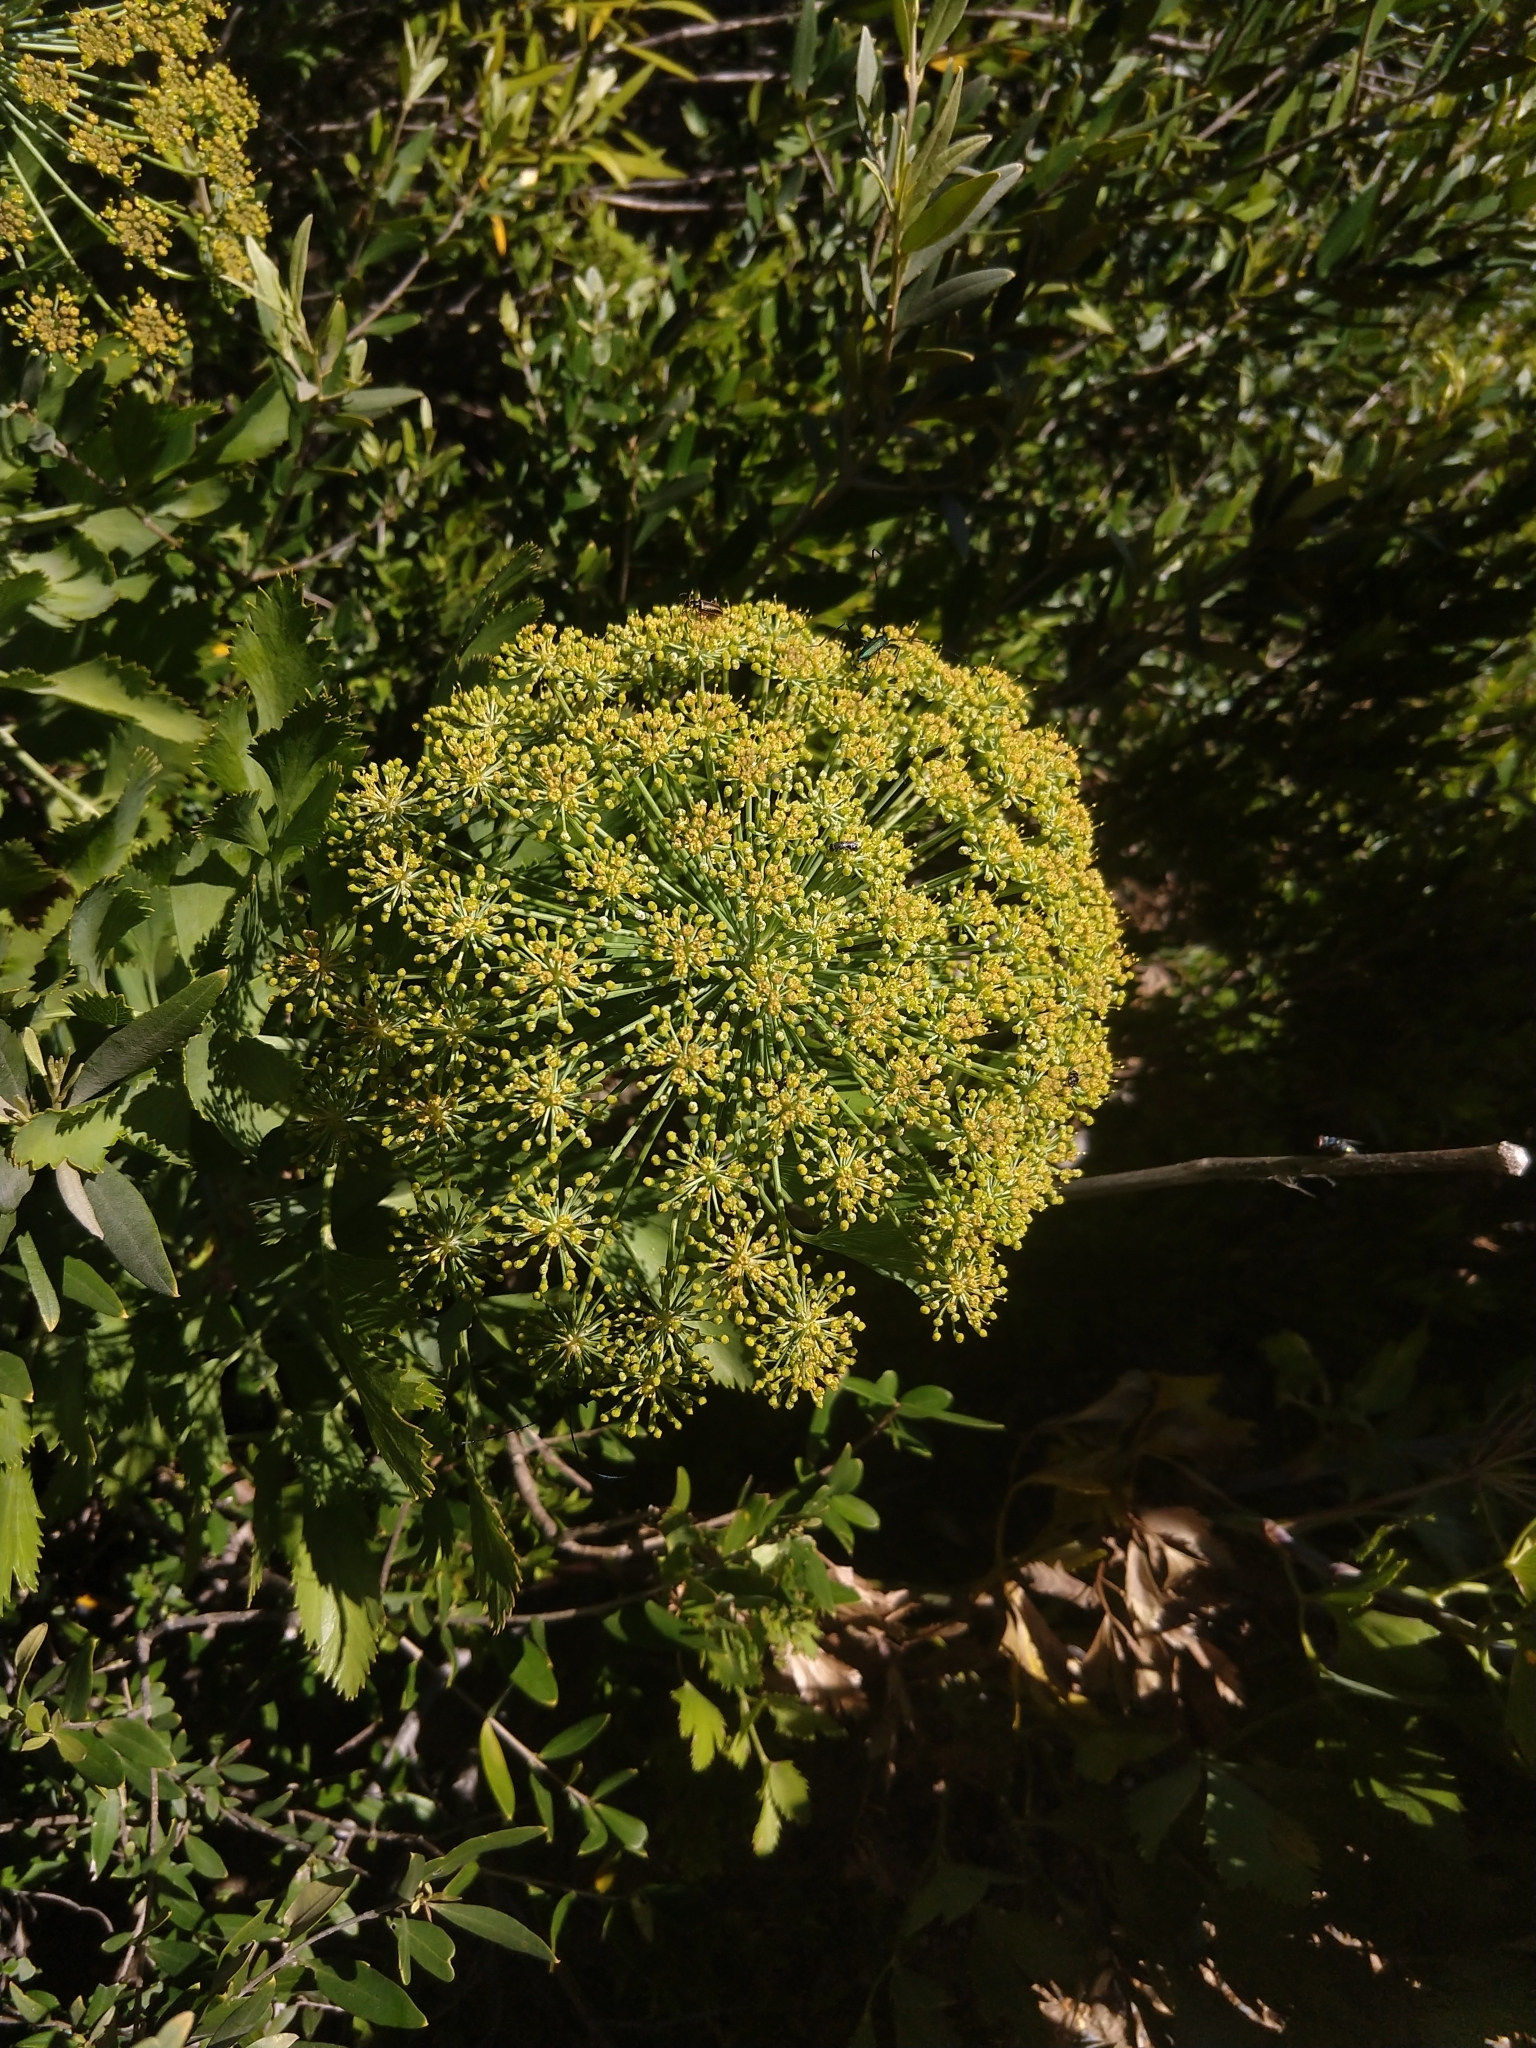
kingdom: Plantae
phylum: Tracheophyta
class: Magnoliopsida
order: Apiales
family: Apiaceae
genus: Notobubon
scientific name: Notobubon galbanum
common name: Blisterbush
